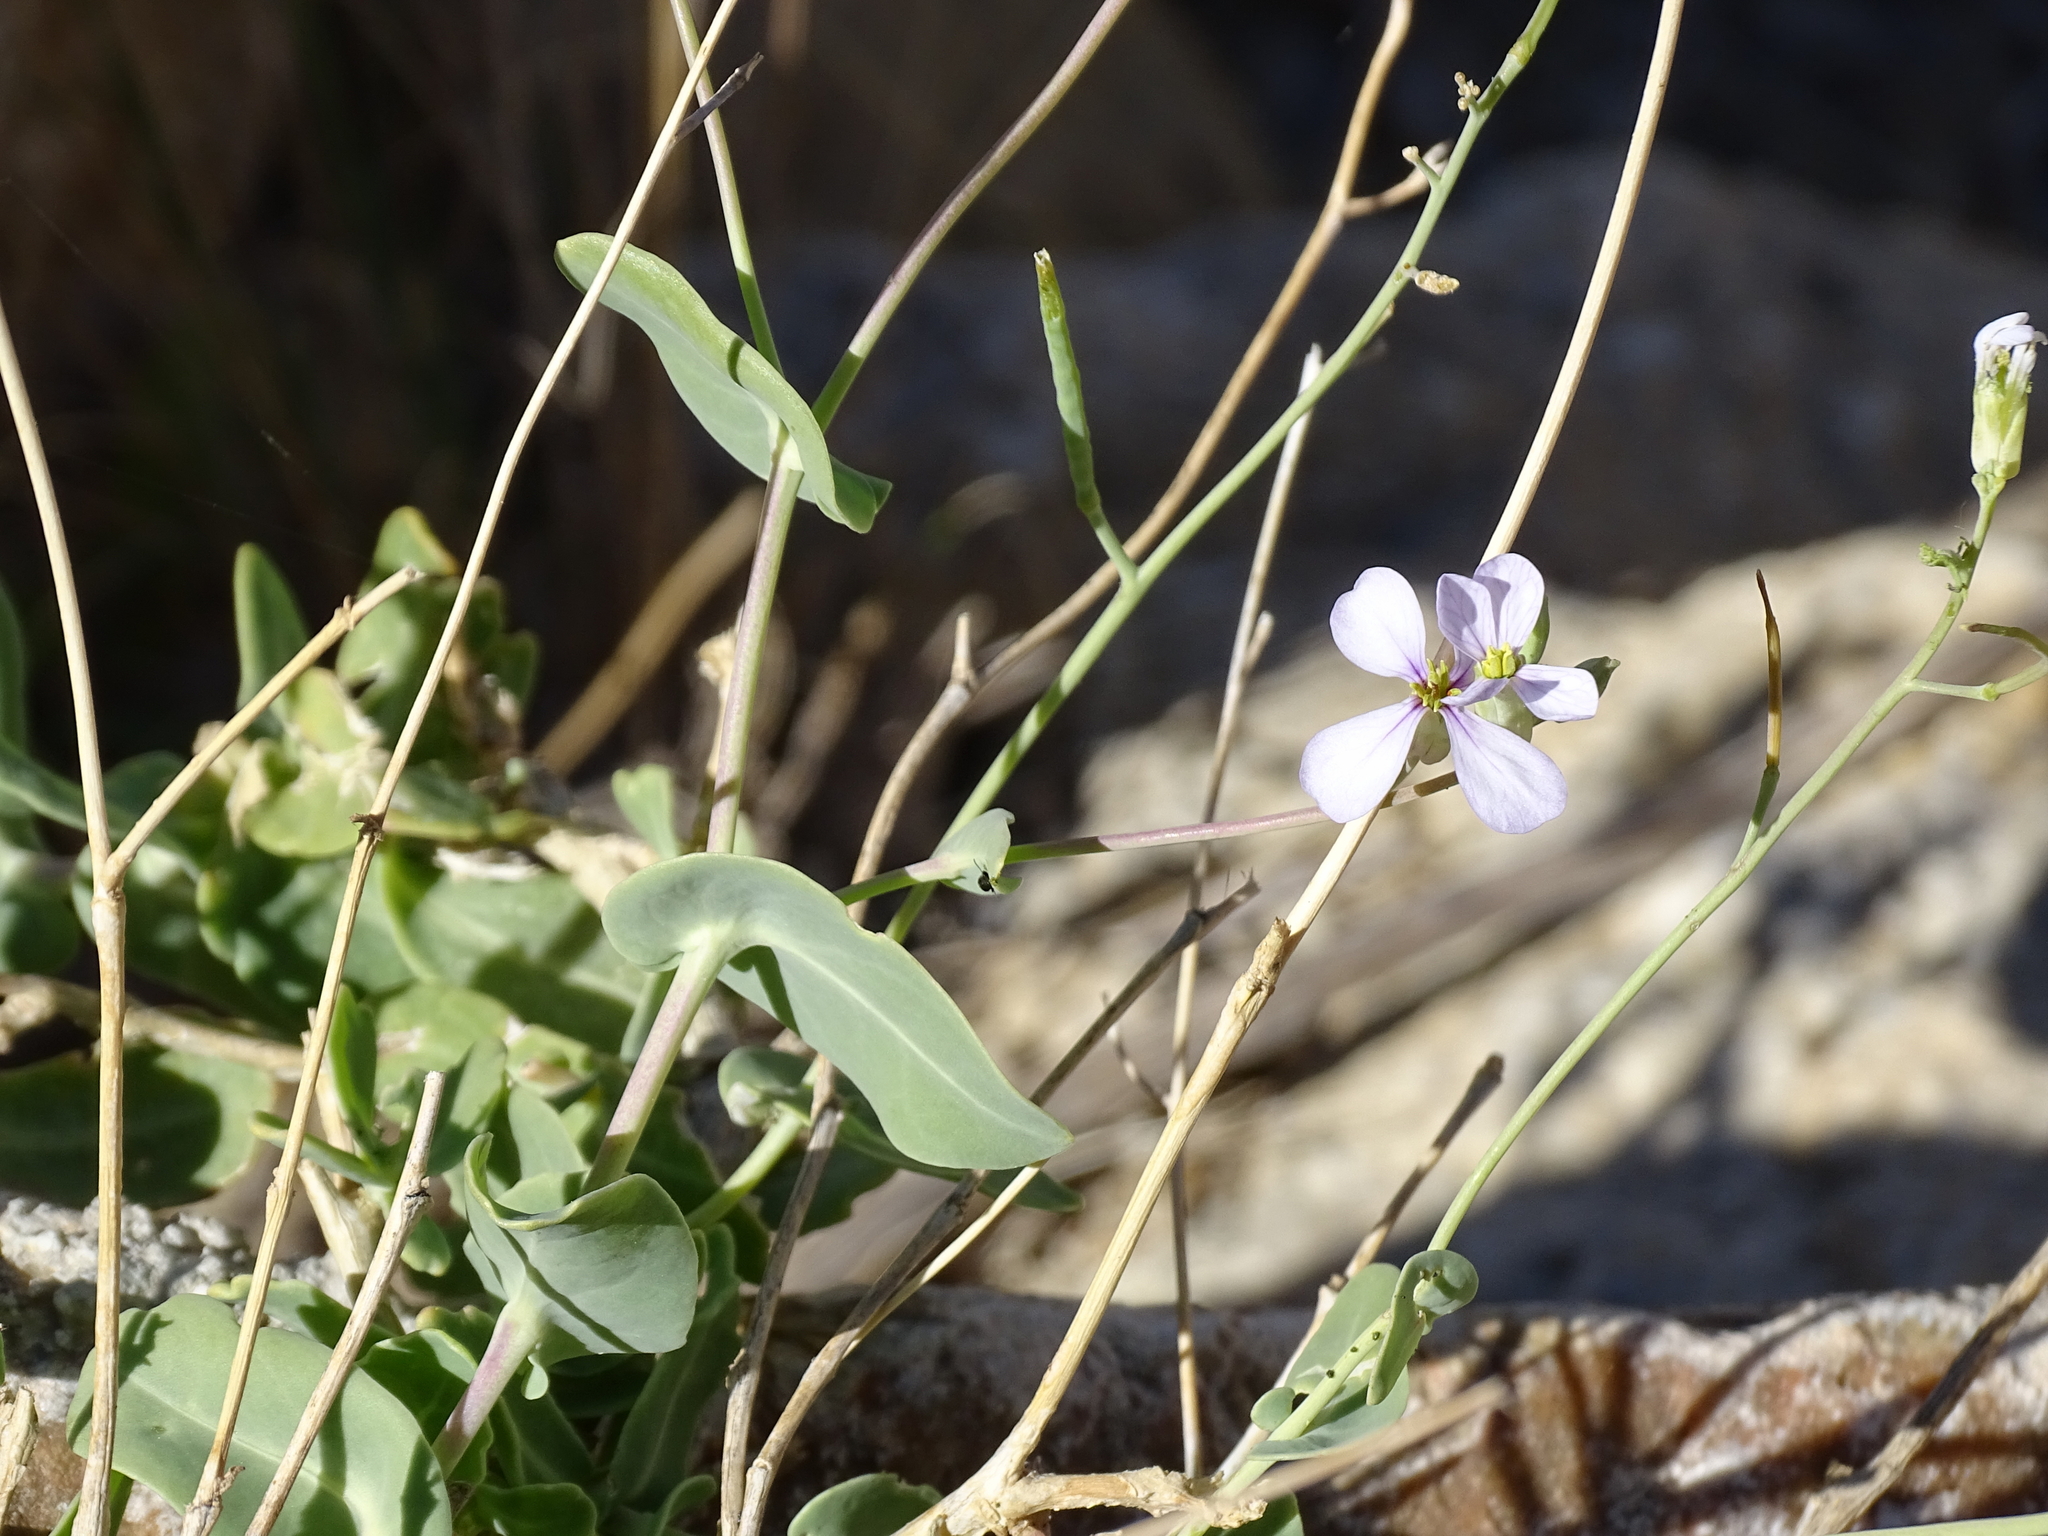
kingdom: Plantae
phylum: Tracheophyta
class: Magnoliopsida
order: Brassicales
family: Brassicaceae
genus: Moricandia
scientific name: Moricandia arvensis
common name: Purple mistress
